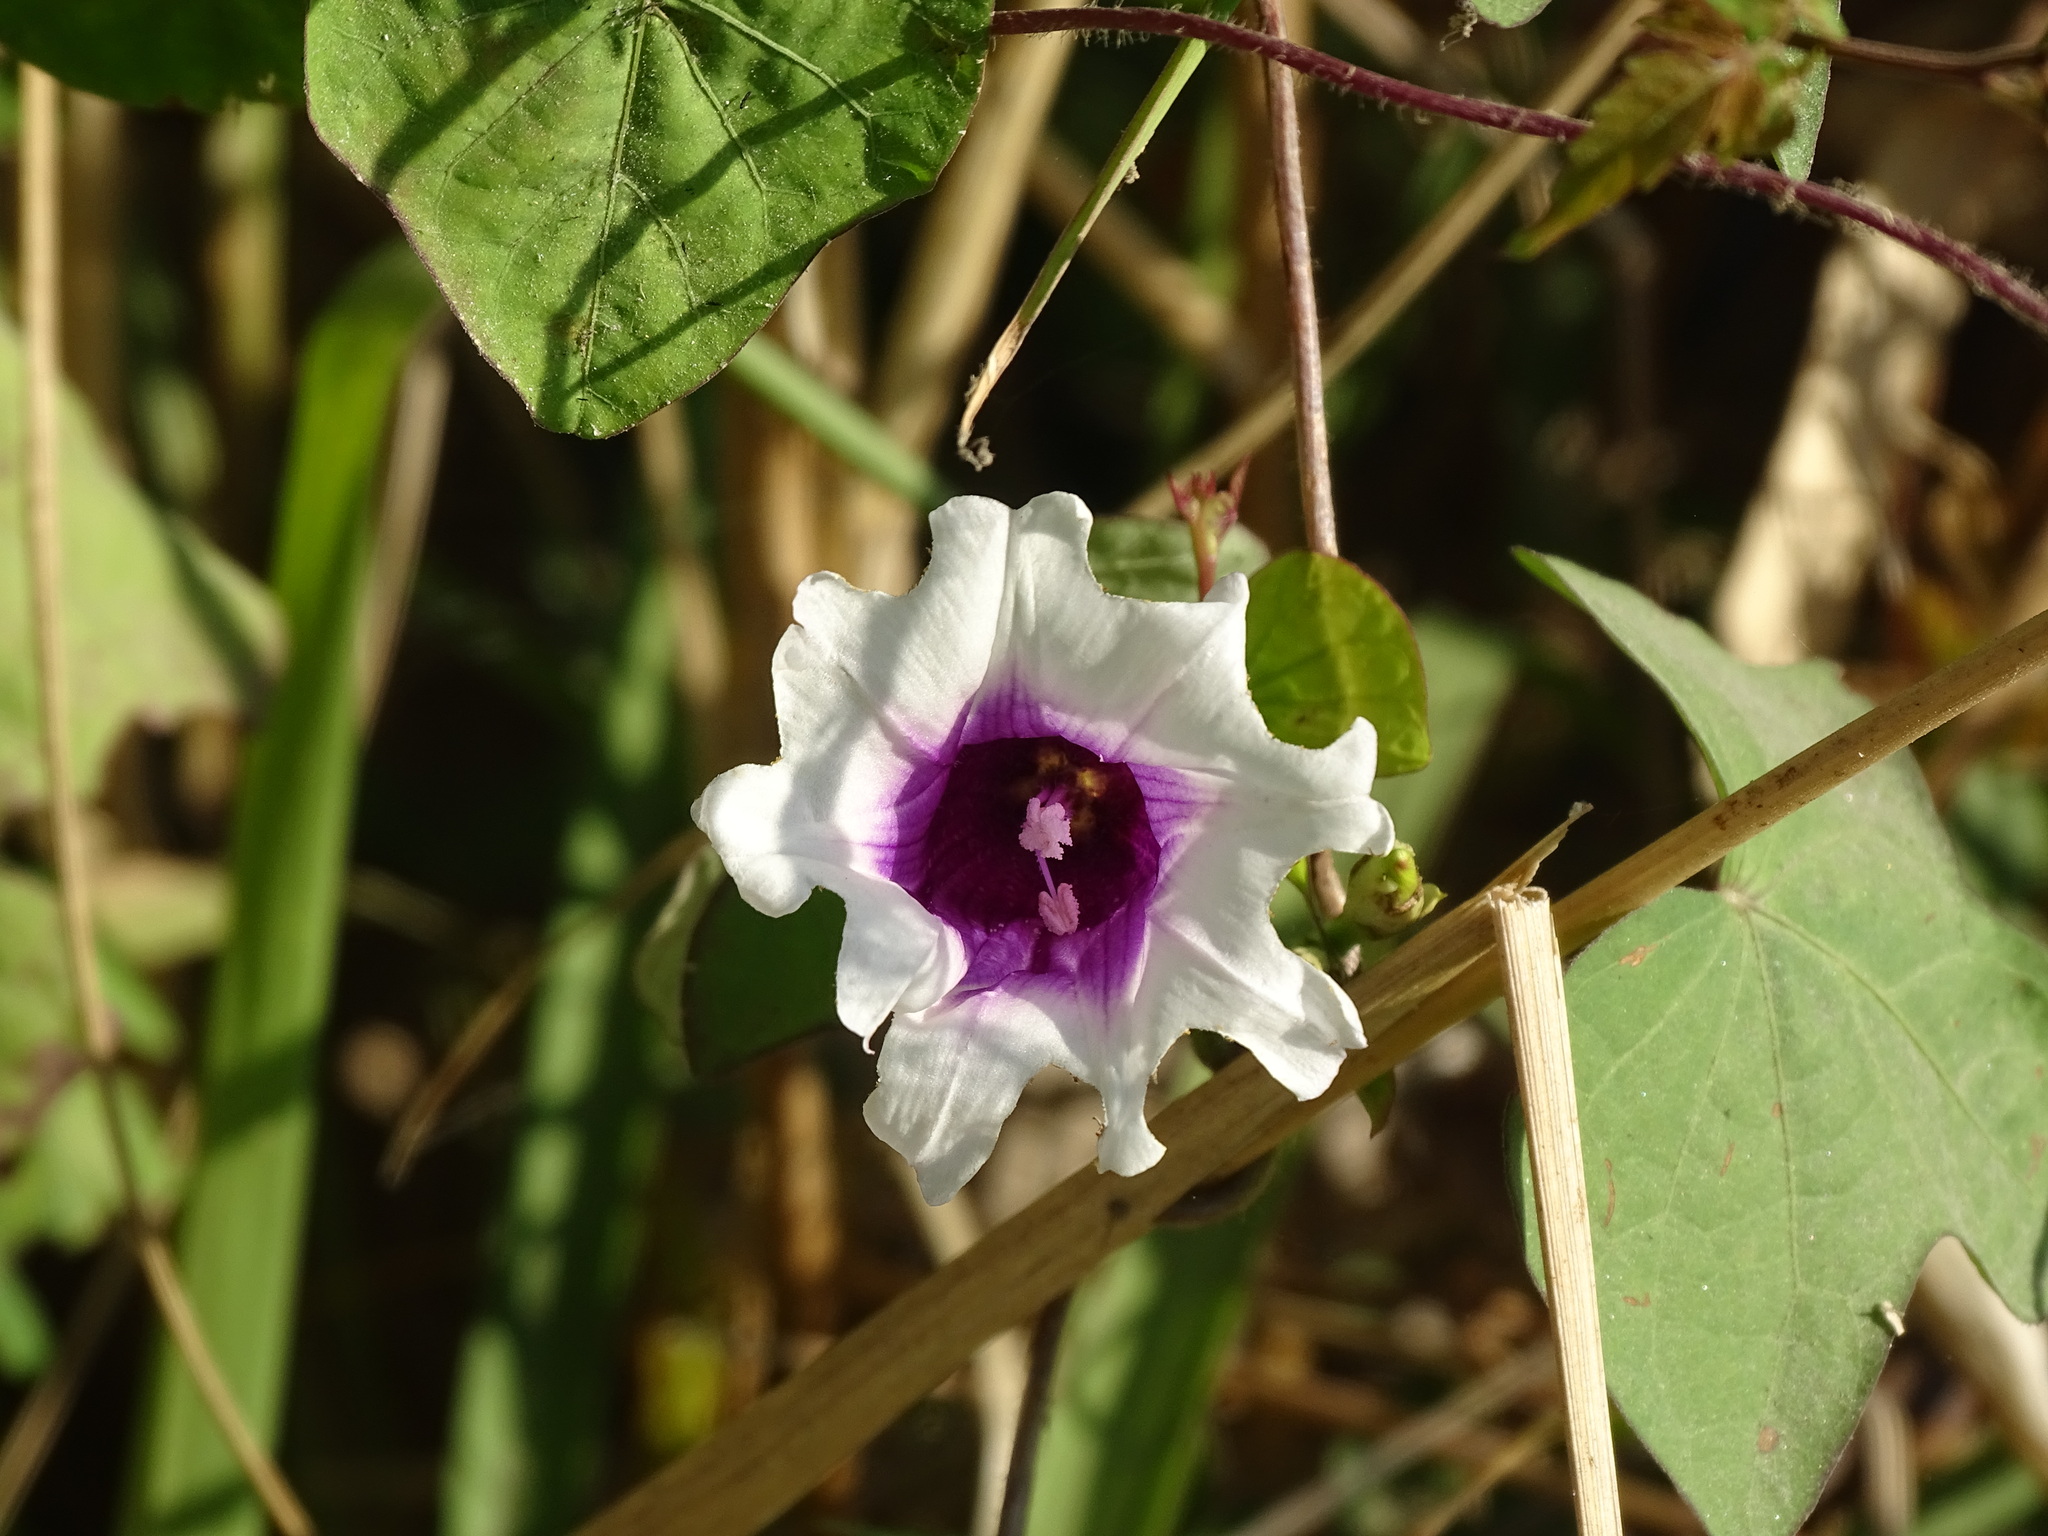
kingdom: Plantae
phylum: Tracheophyta
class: Magnoliopsida
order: Solanales
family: Convolvulaceae
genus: Ipomoea
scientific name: Ipomoea batatas
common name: Sweet-potato
